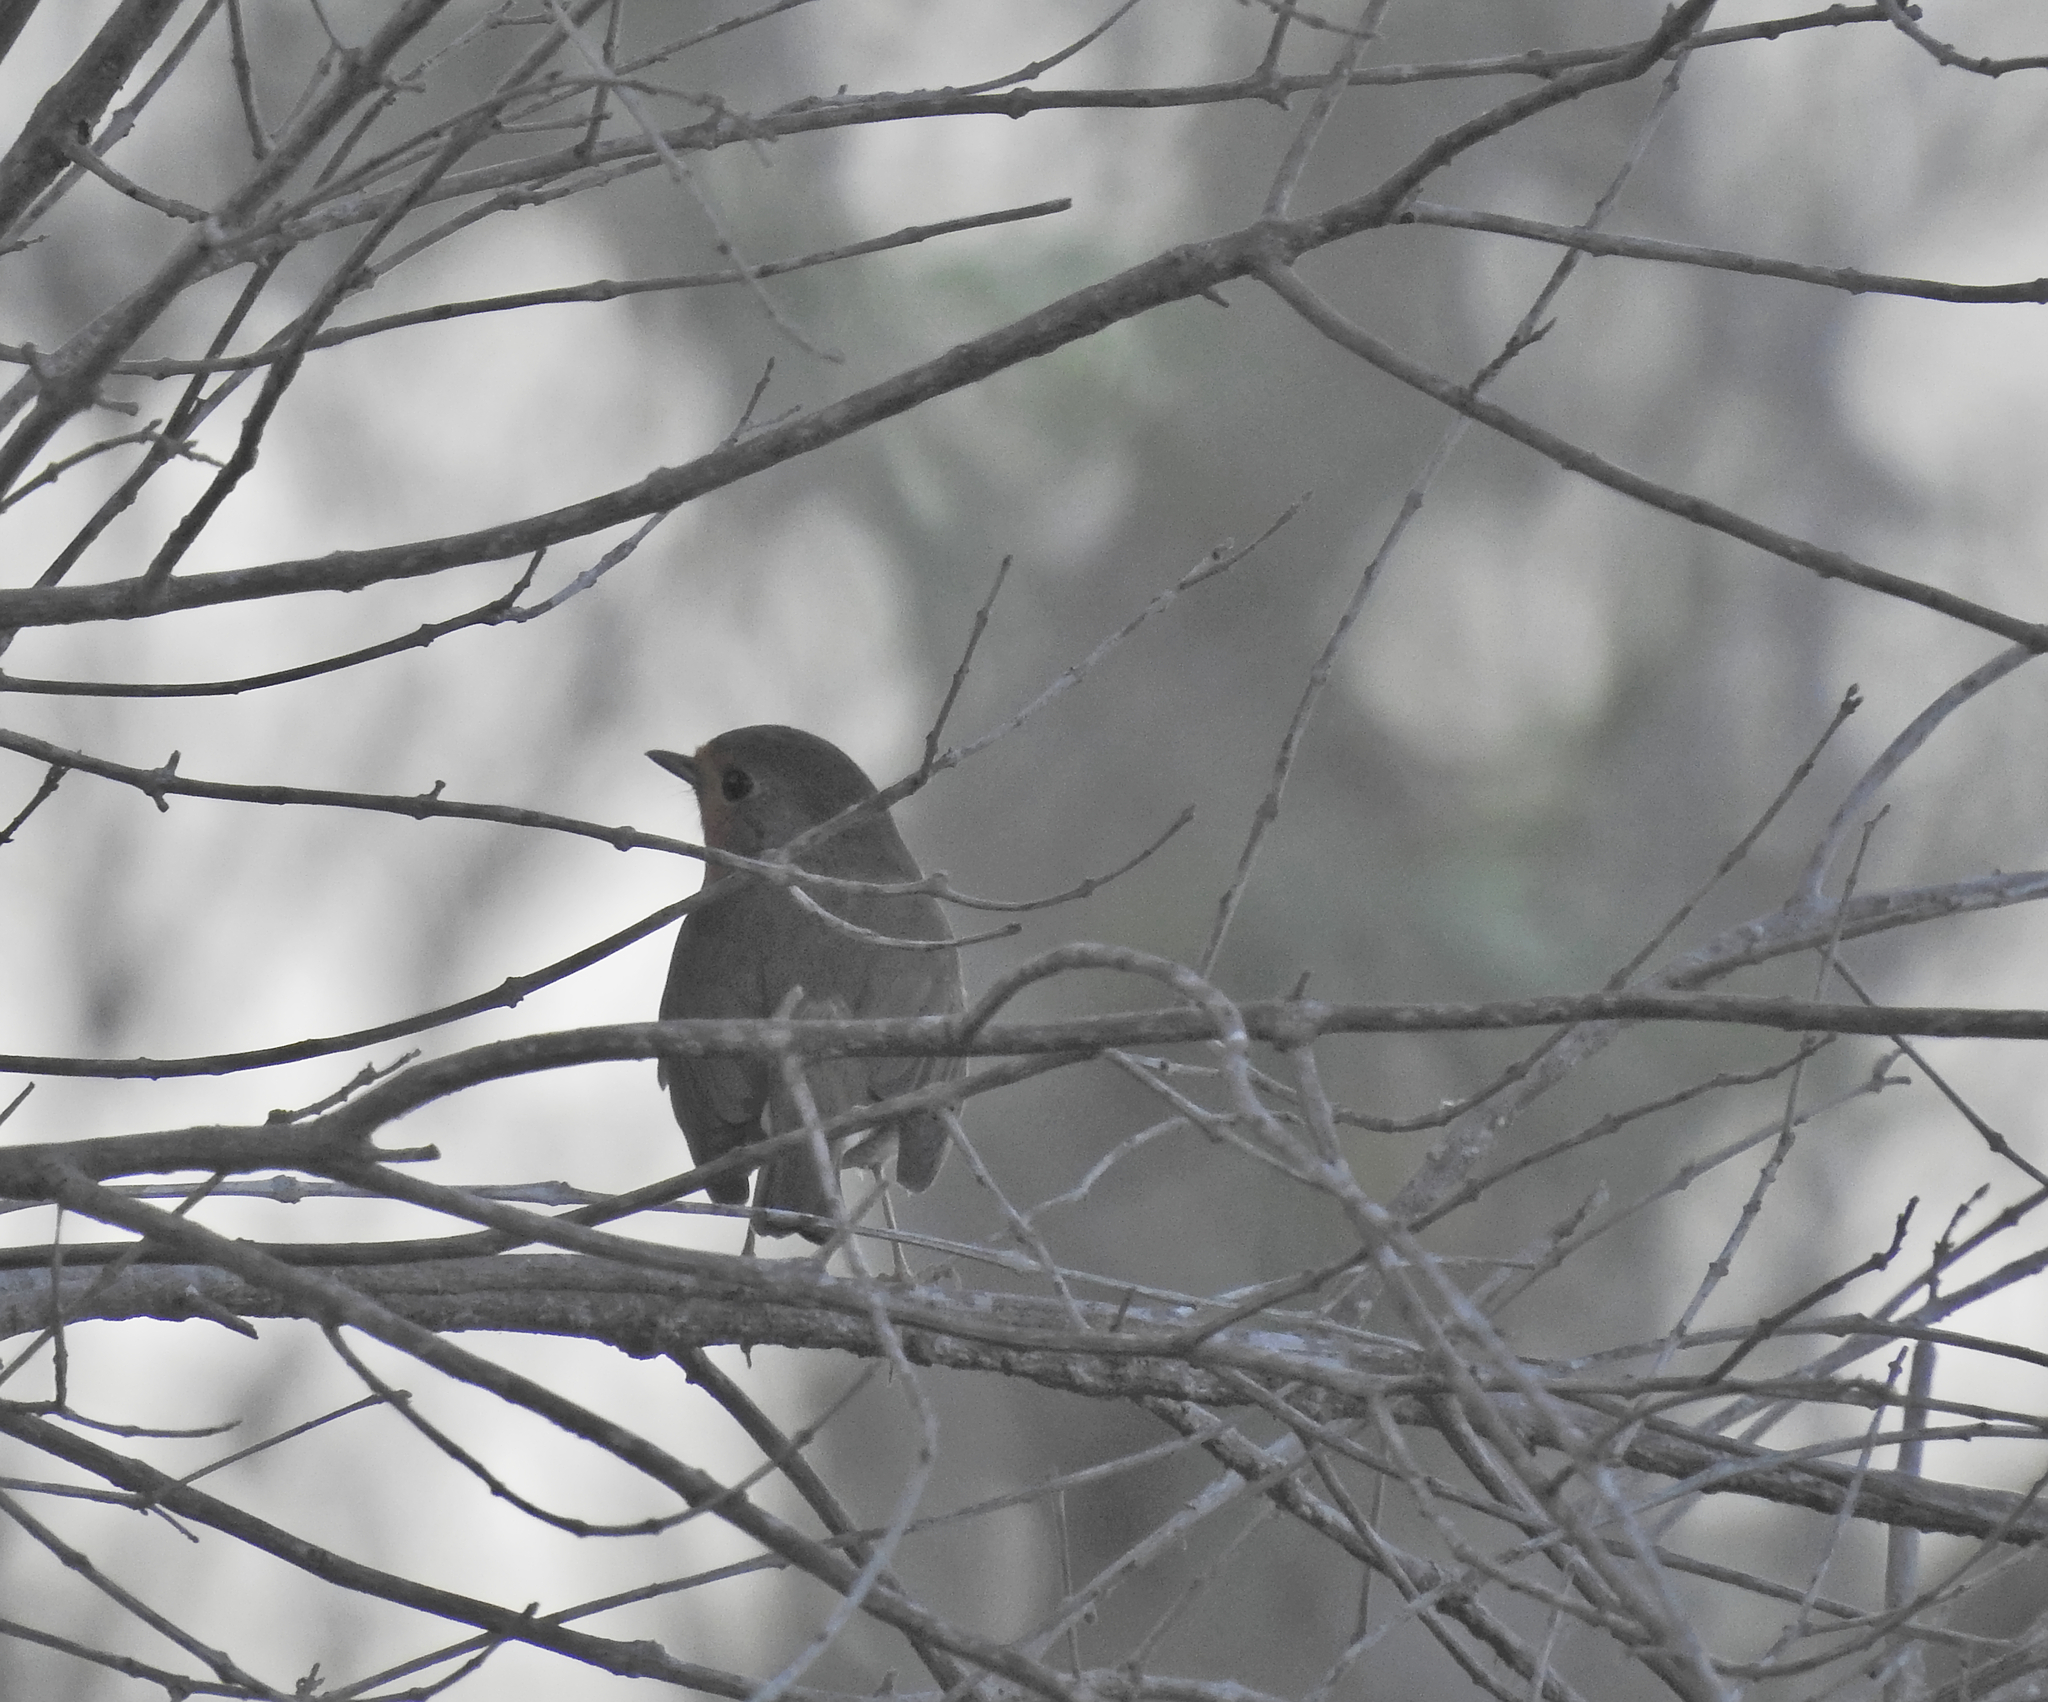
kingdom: Animalia
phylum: Chordata
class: Aves
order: Passeriformes
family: Muscicapidae
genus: Erithacus
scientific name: Erithacus rubecula
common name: European robin
